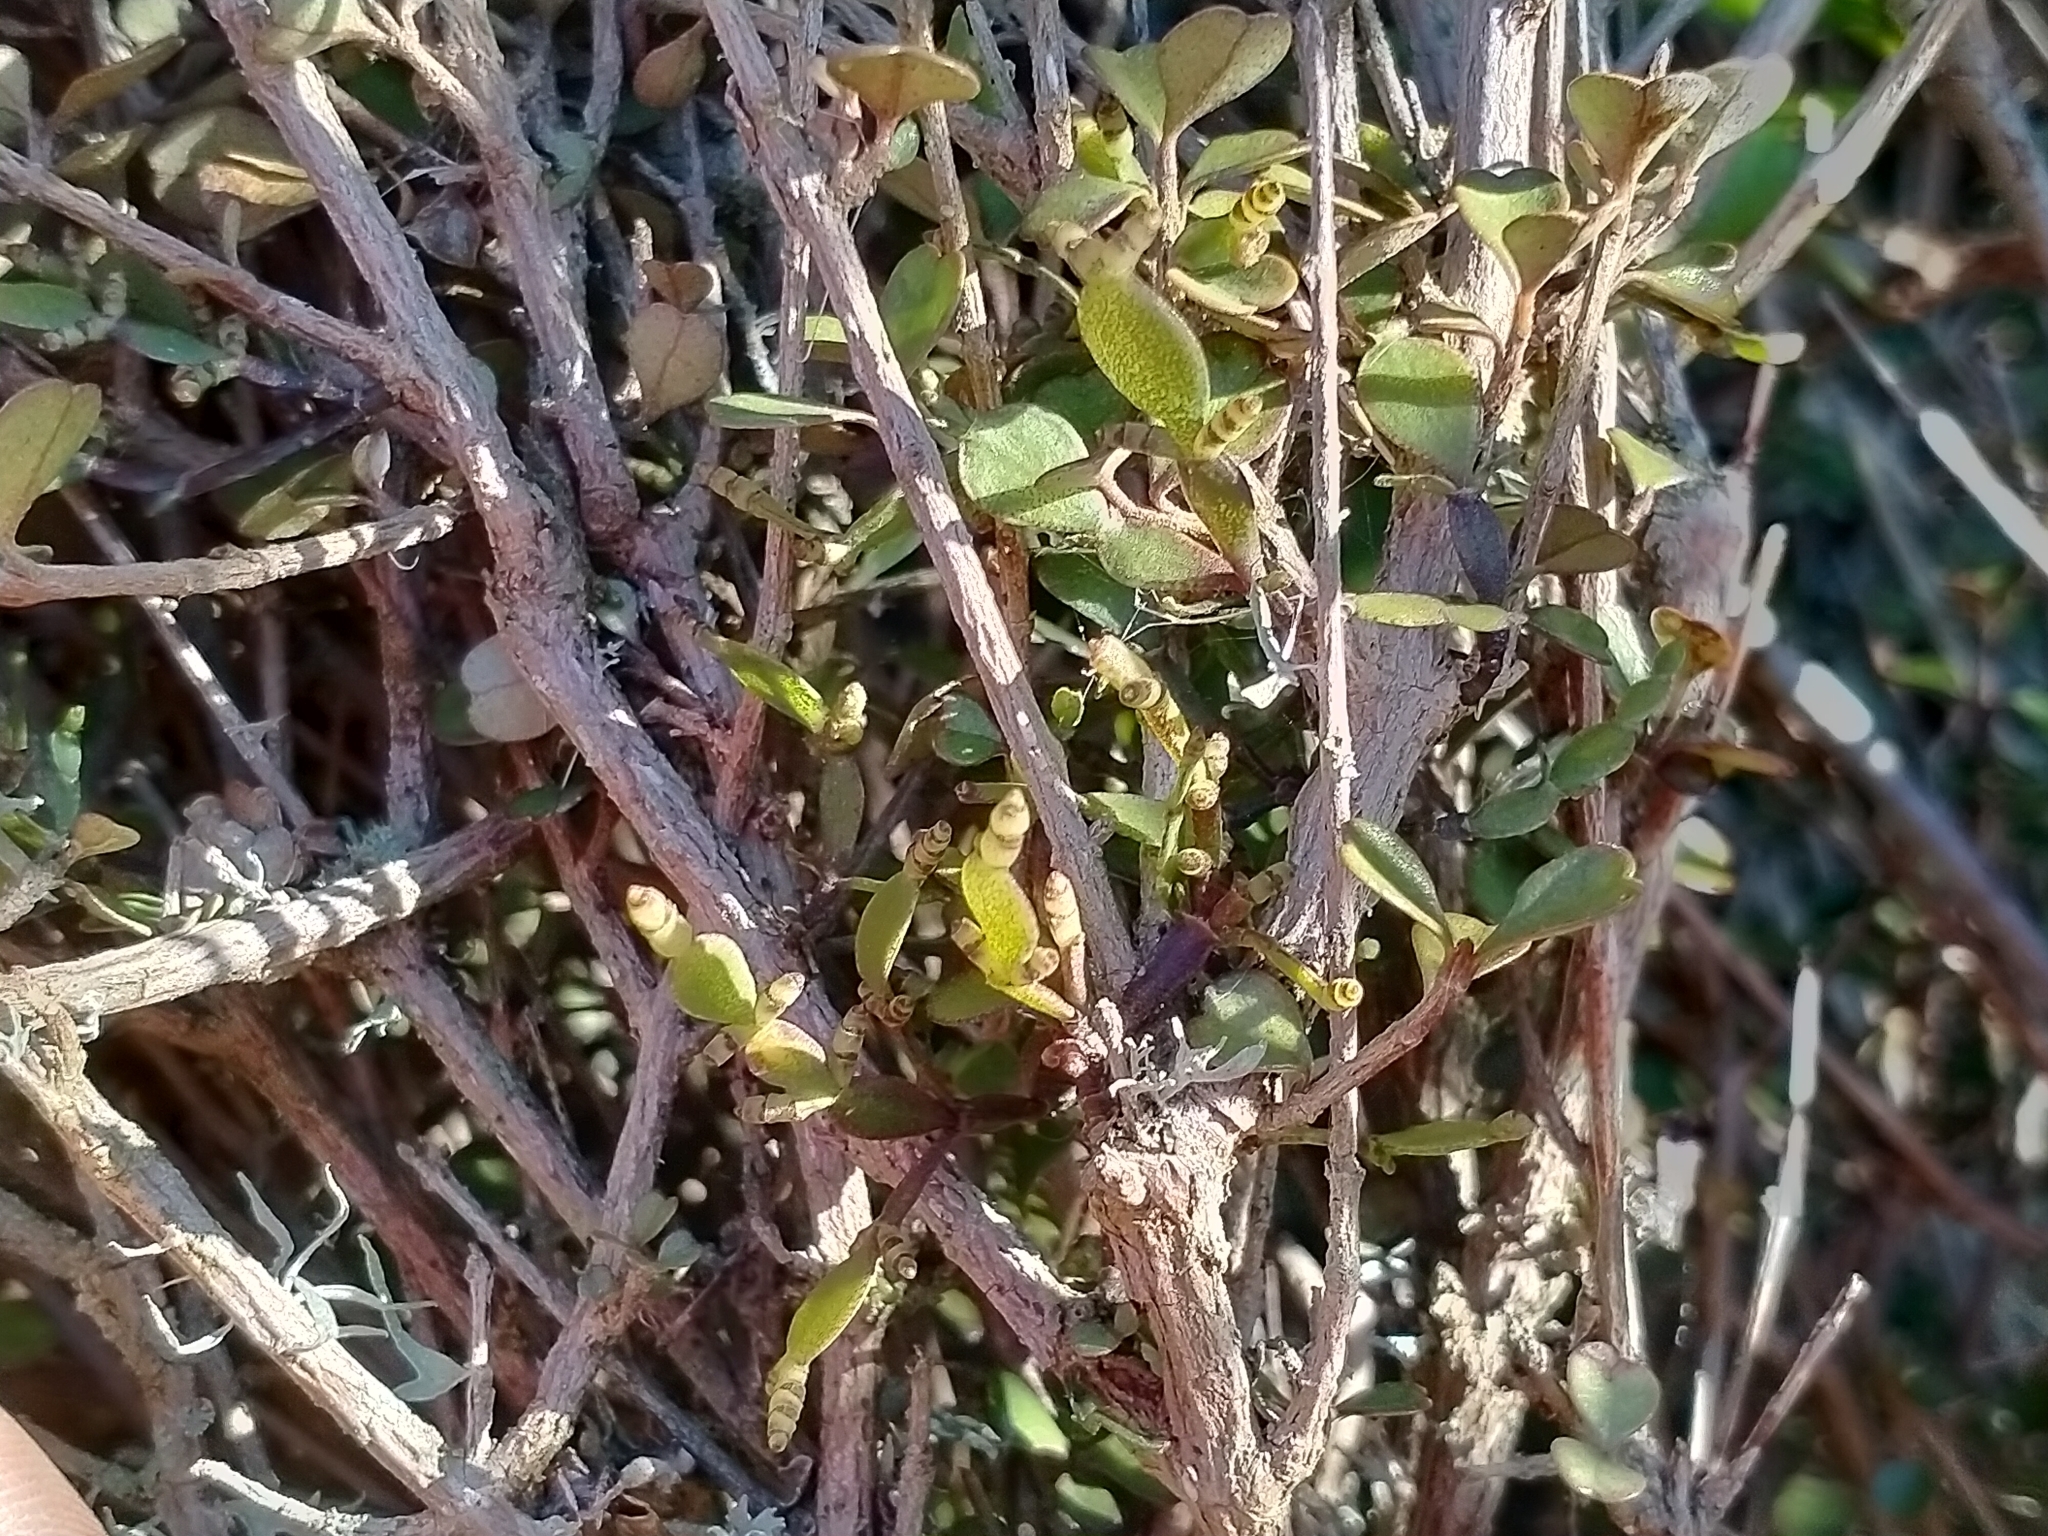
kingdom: Plantae
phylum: Tracheophyta
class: Magnoliopsida
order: Santalales
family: Viscaceae
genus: Korthalsella
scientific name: Korthalsella lindsayi
